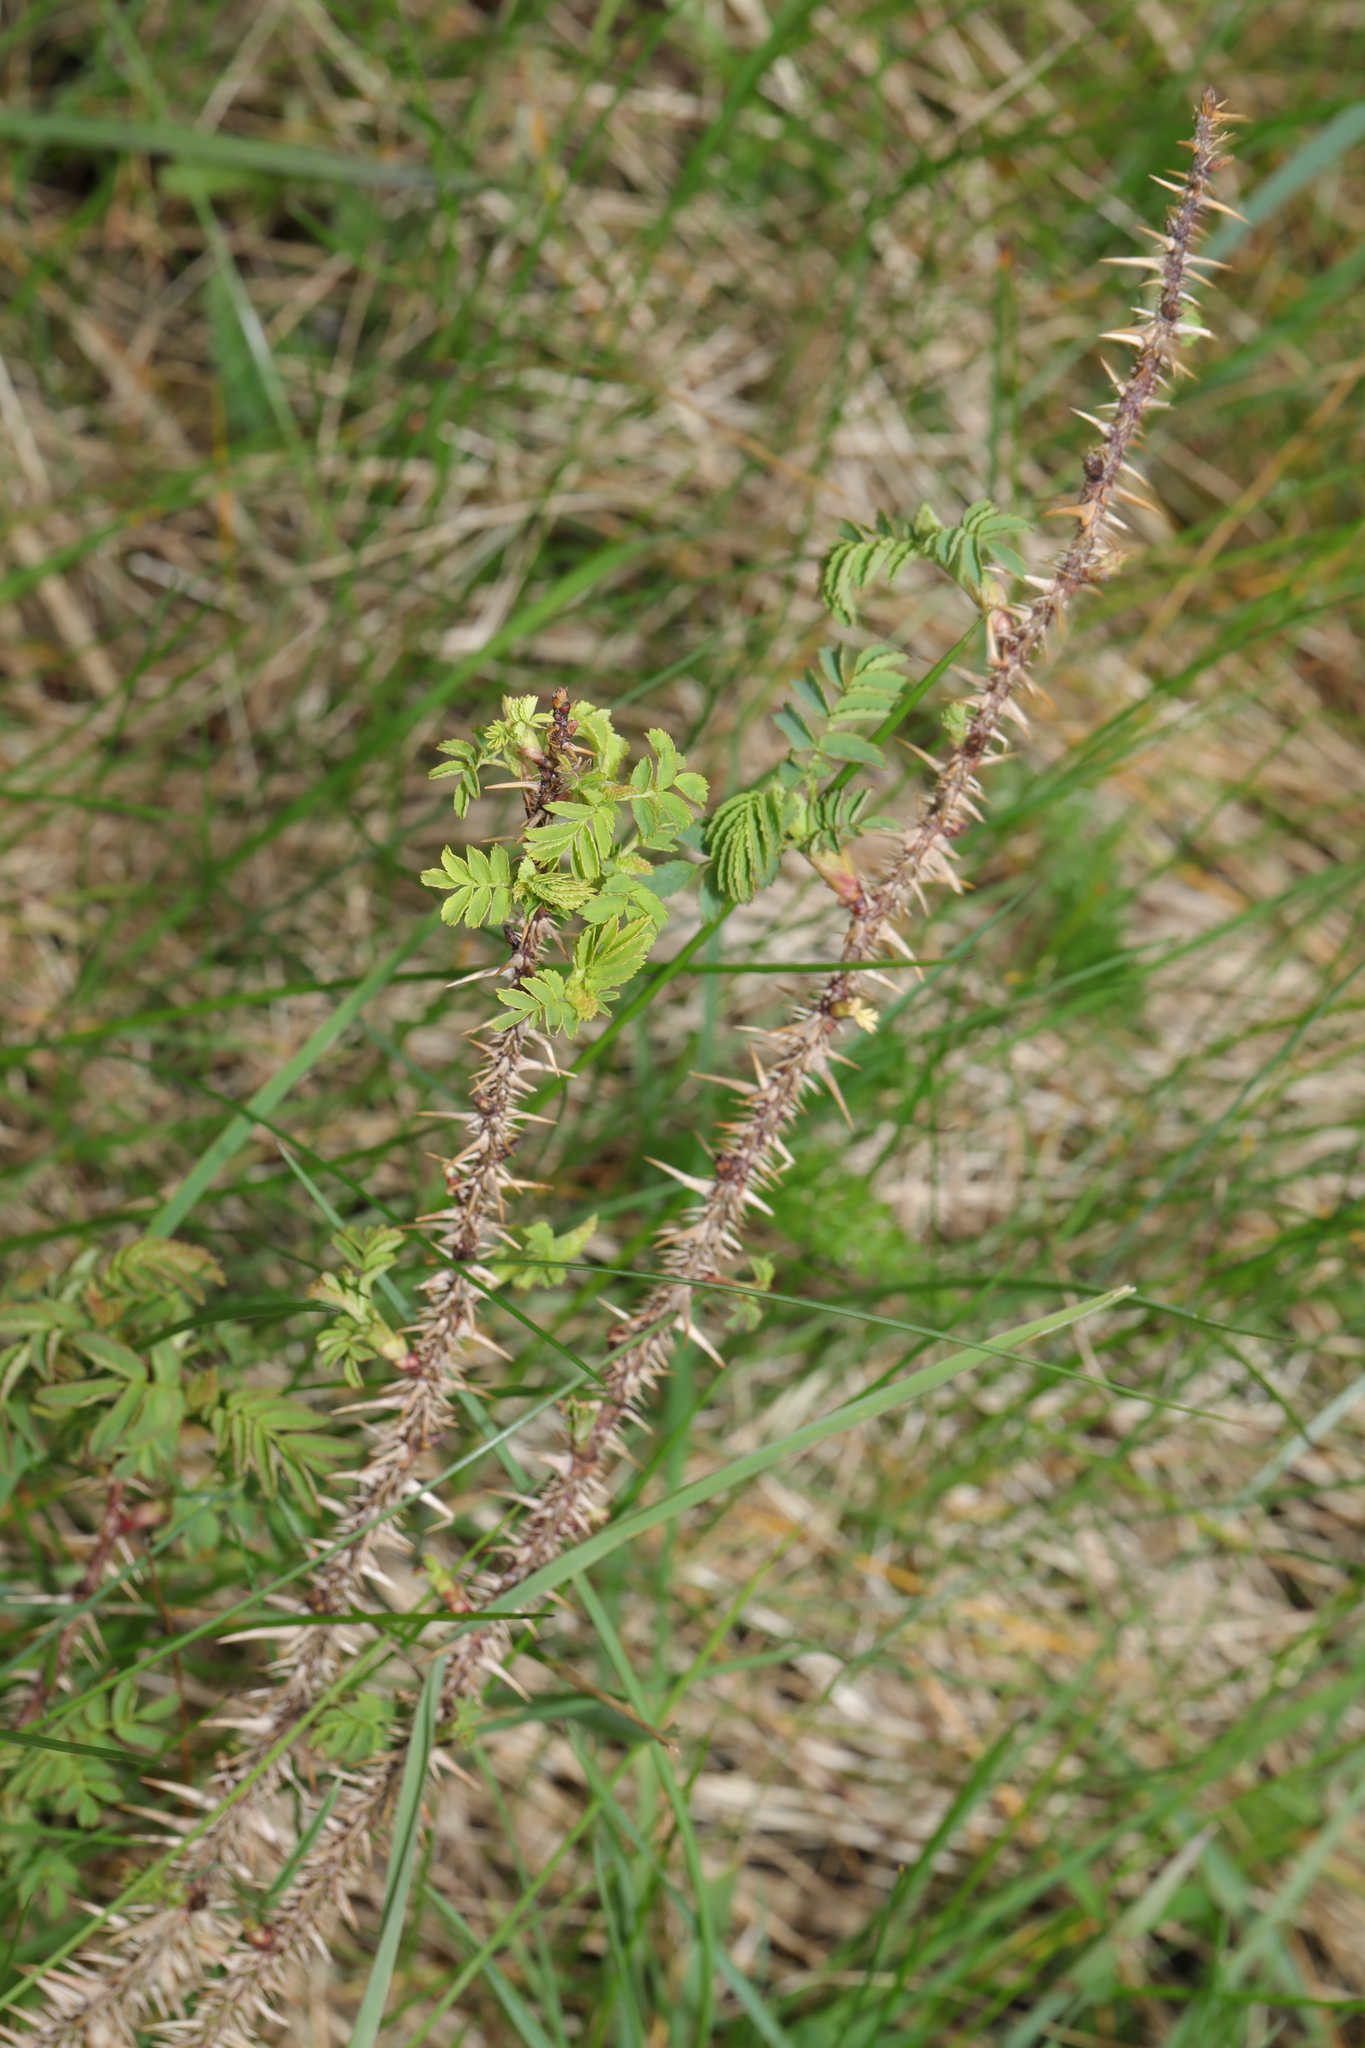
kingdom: Plantae
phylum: Tracheophyta
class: Magnoliopsida
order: Rosales
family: Rosaceae
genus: Rosa
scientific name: Rosa spinosissima
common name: Burnet rose
